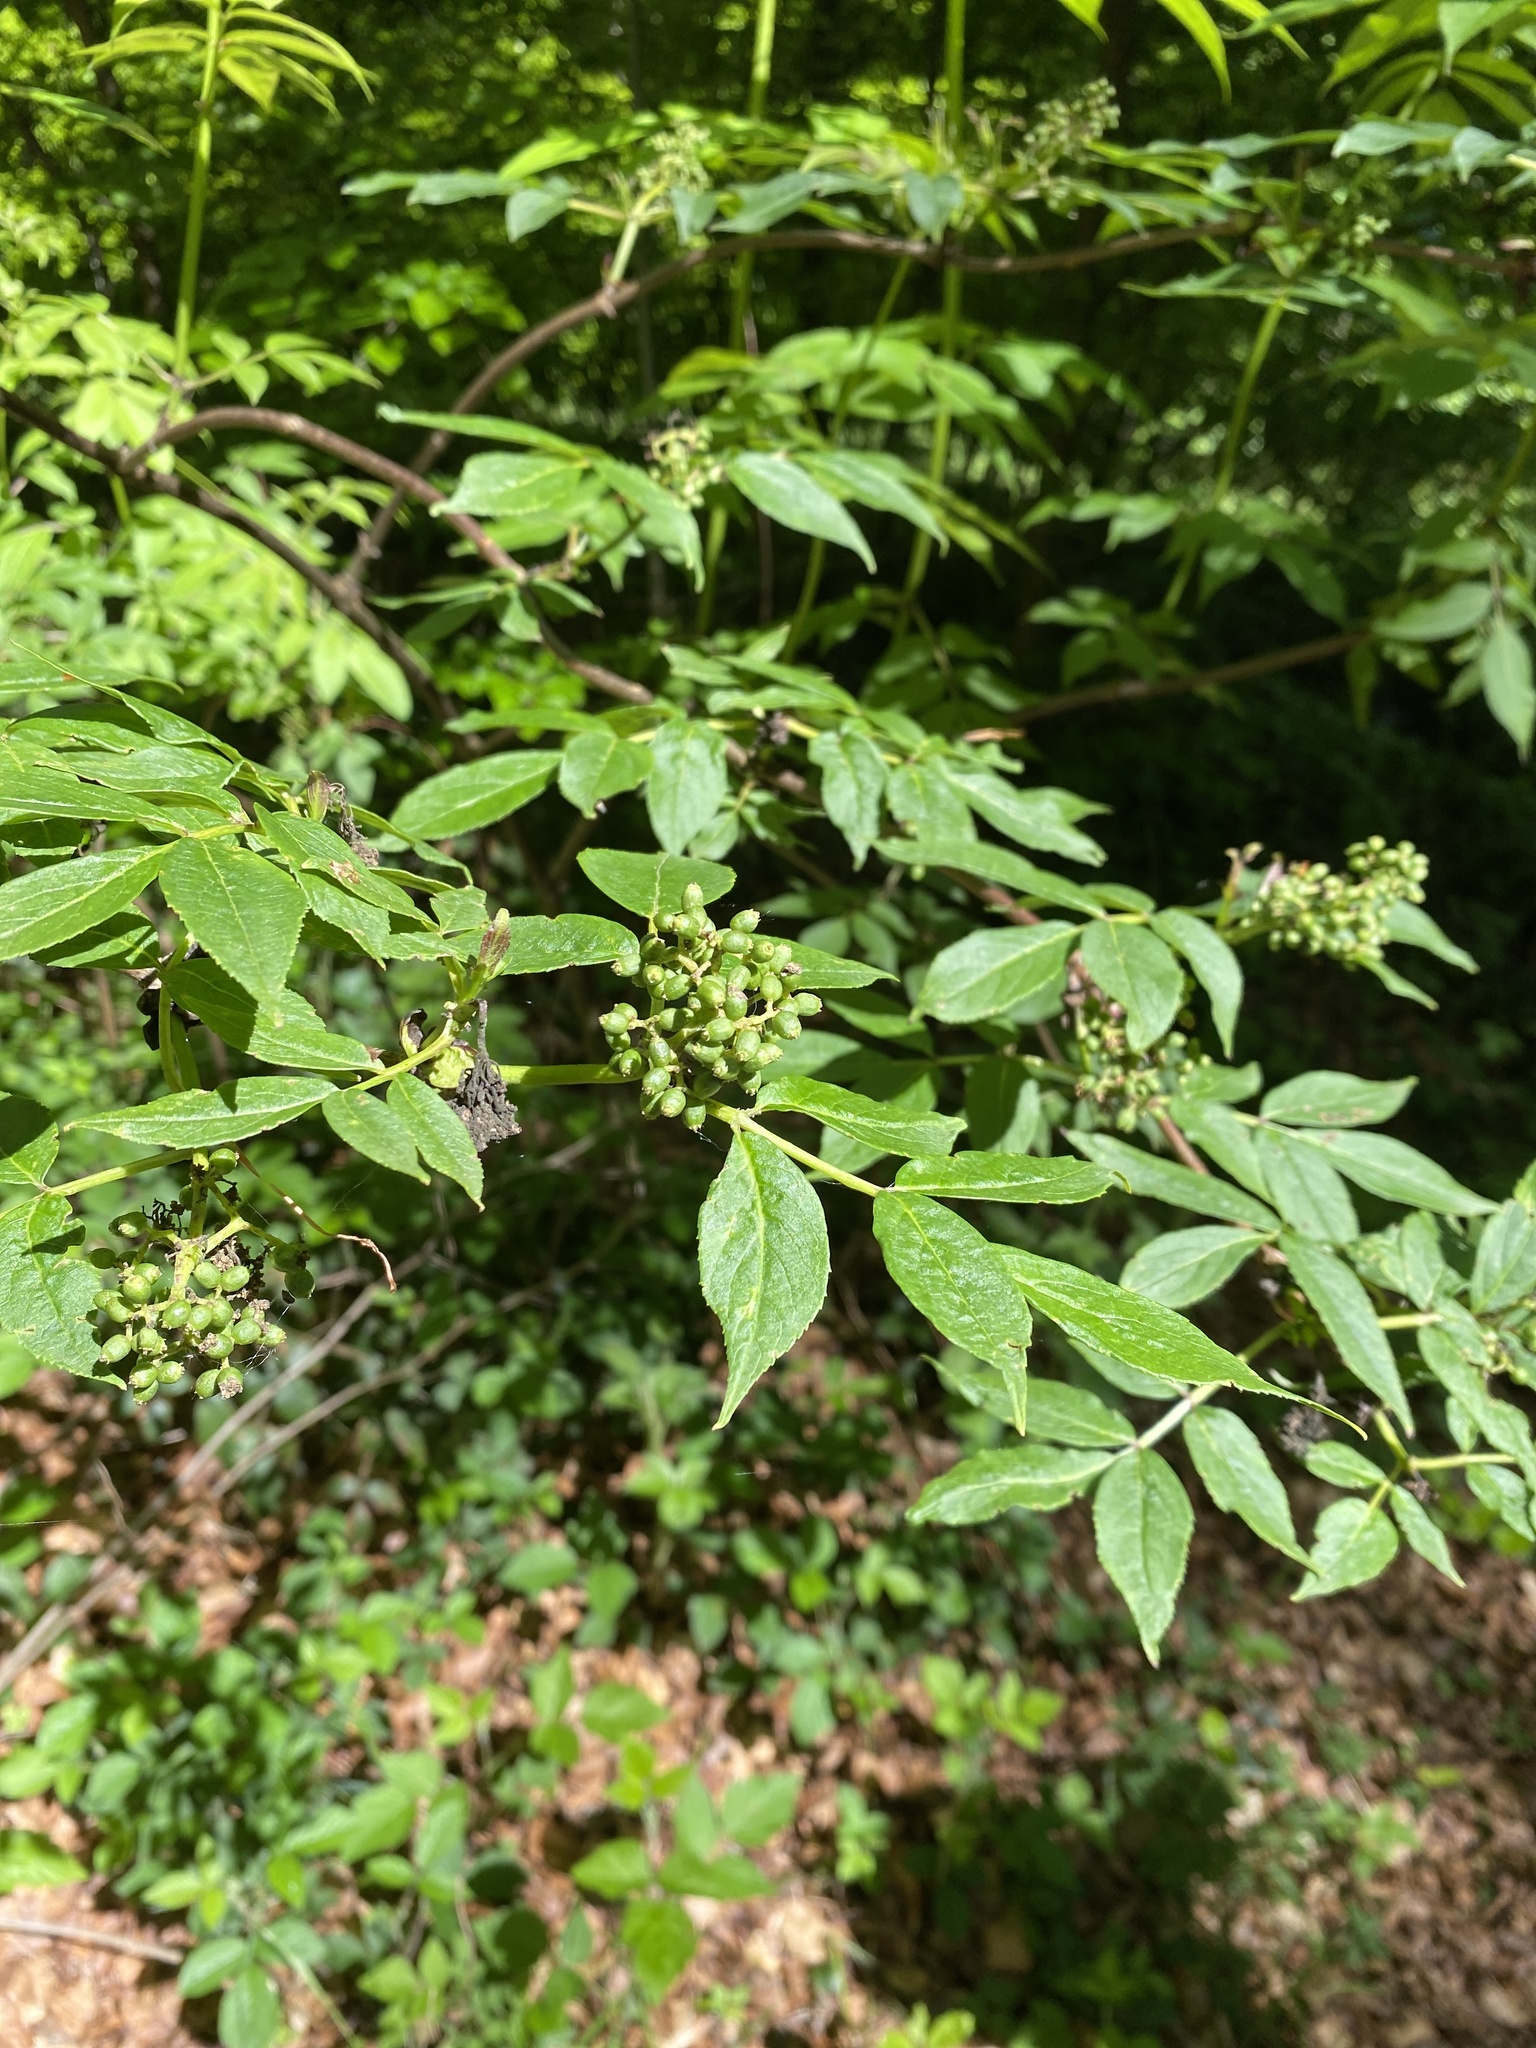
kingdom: Plantae
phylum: Tracheophyta
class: Magnoliopsida
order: Dipsacales
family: Viburnaceae
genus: Sambucus
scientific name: Sambucus racemosa
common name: Red-berried elder
